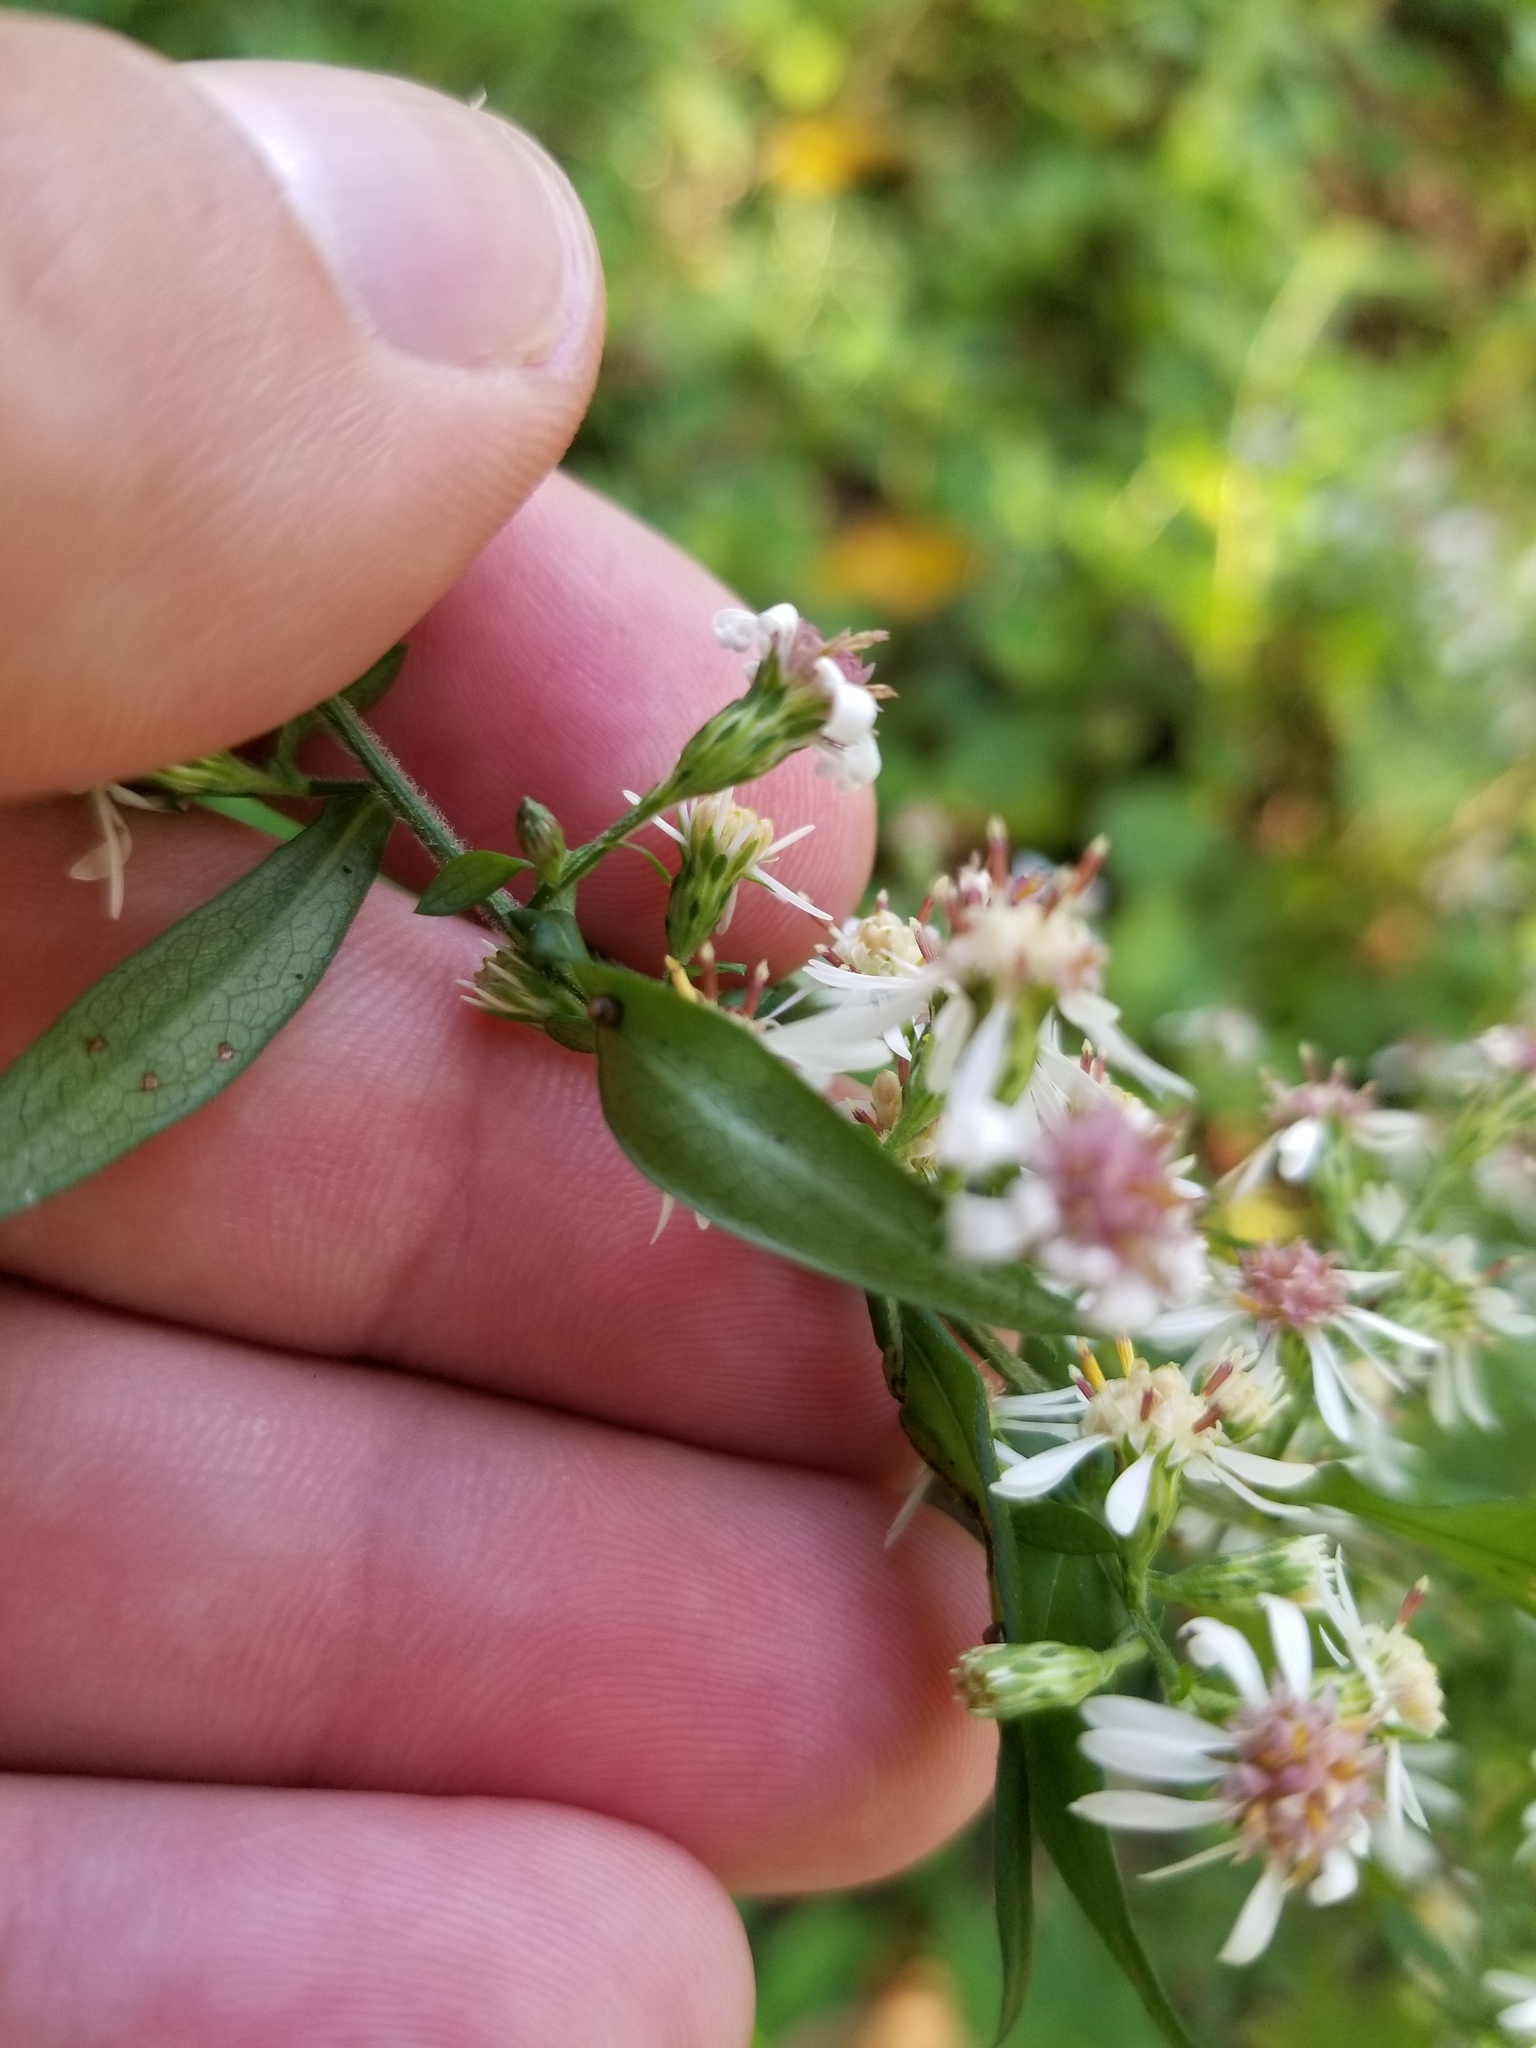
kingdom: Plantae
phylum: Tracheophyta
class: Magnoliopsida
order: Asterales
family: Asteraceae
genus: Symphyotrichum
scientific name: Symphyotrichum lateriflorum
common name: Calico aster
